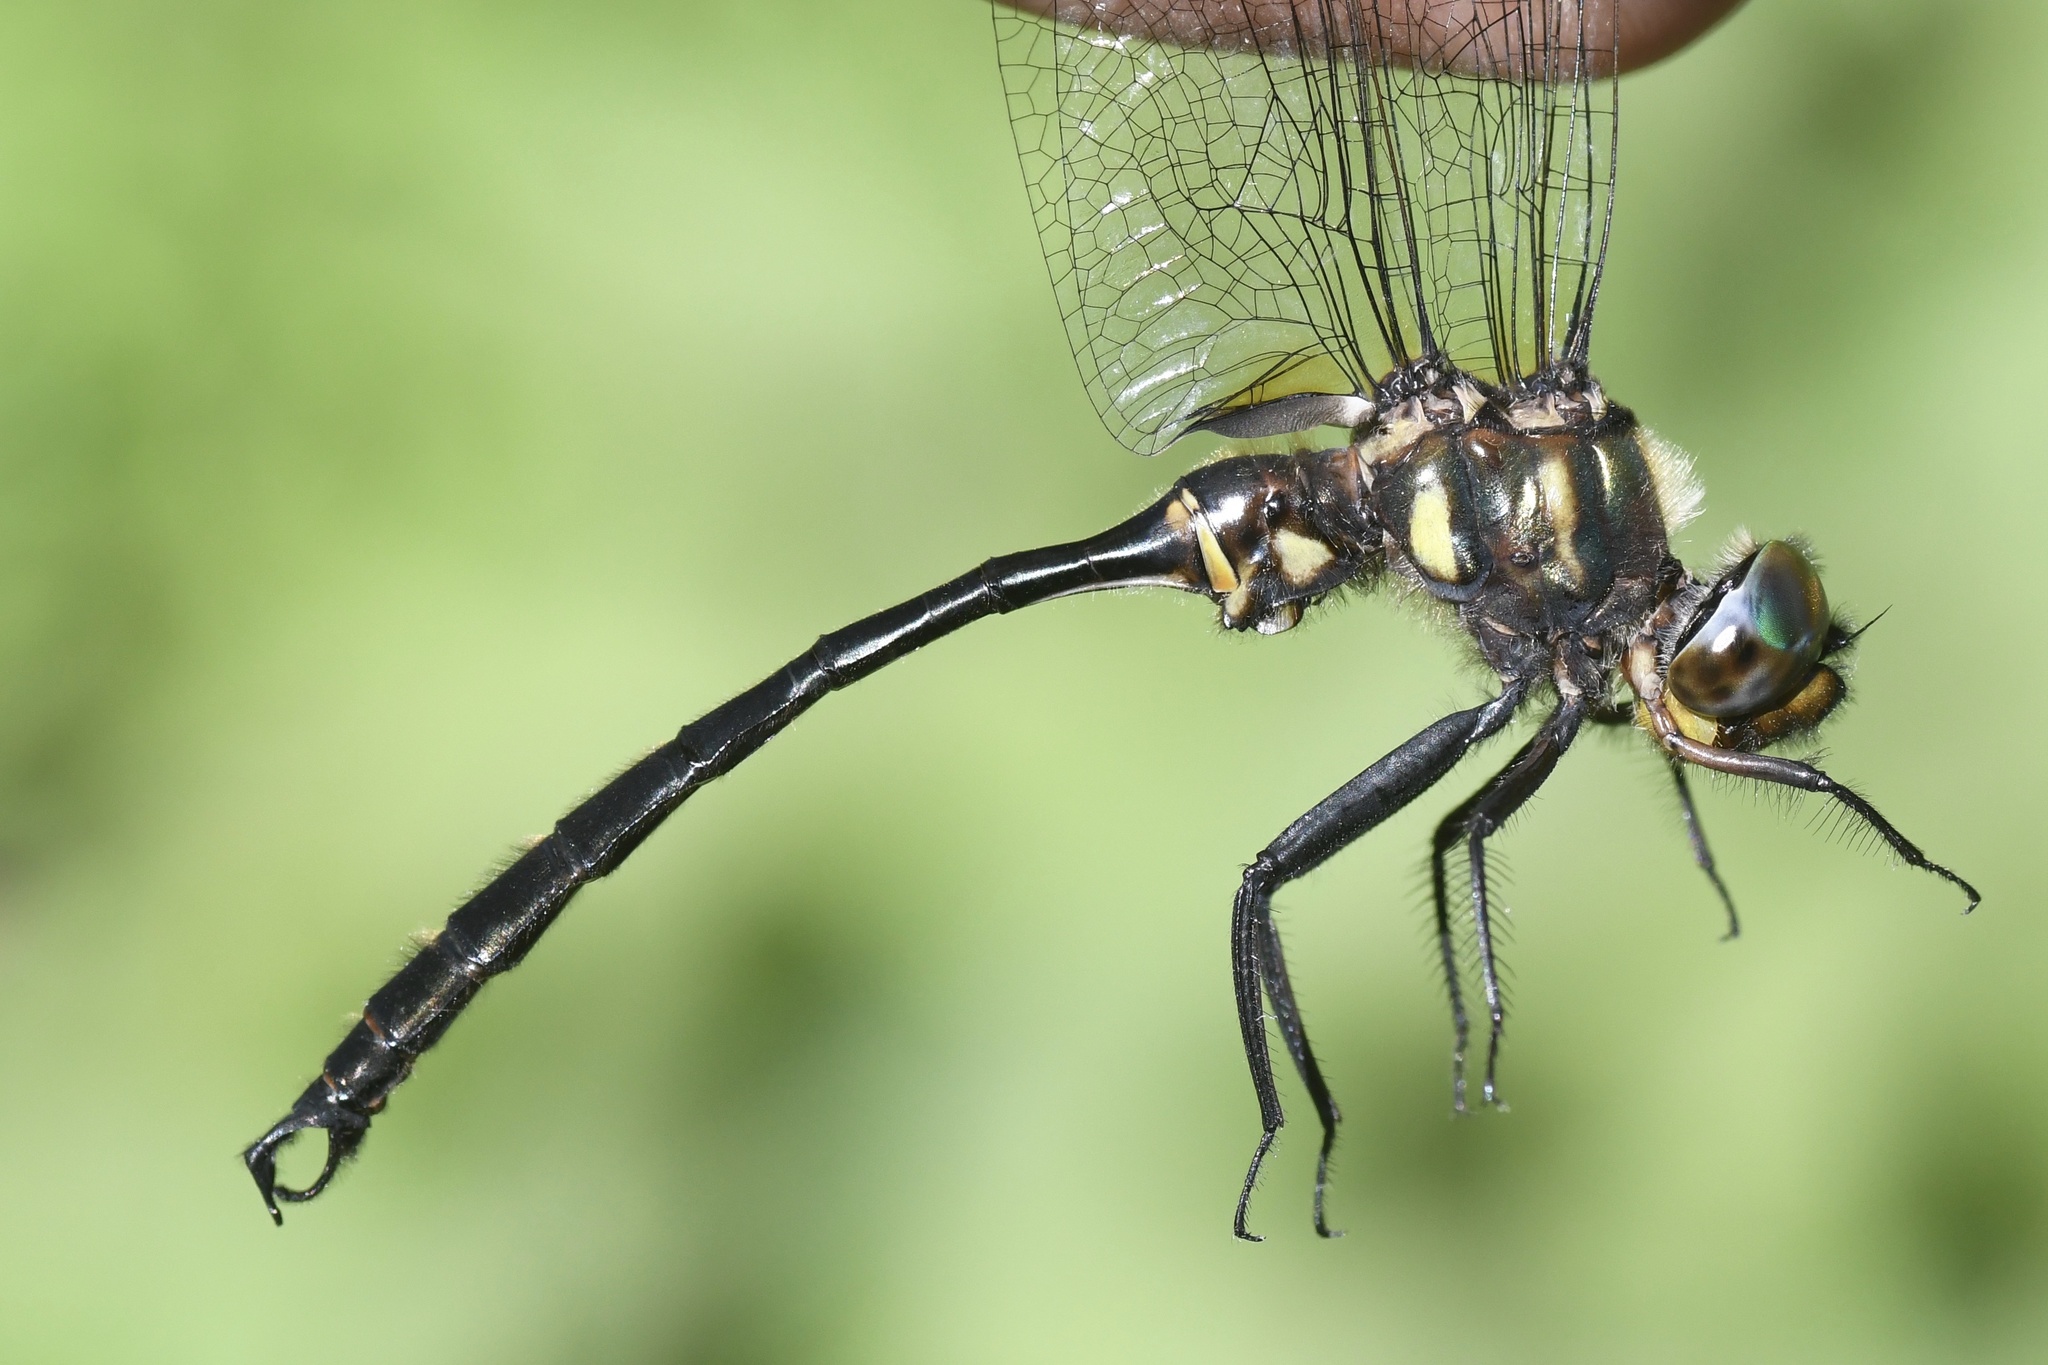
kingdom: Animalia
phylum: Arthropoda
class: Insecta
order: Odonata
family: Corduliidae
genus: Somatochlora
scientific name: Somatochlora tenebrosa
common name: Clamp-tipped emerald
